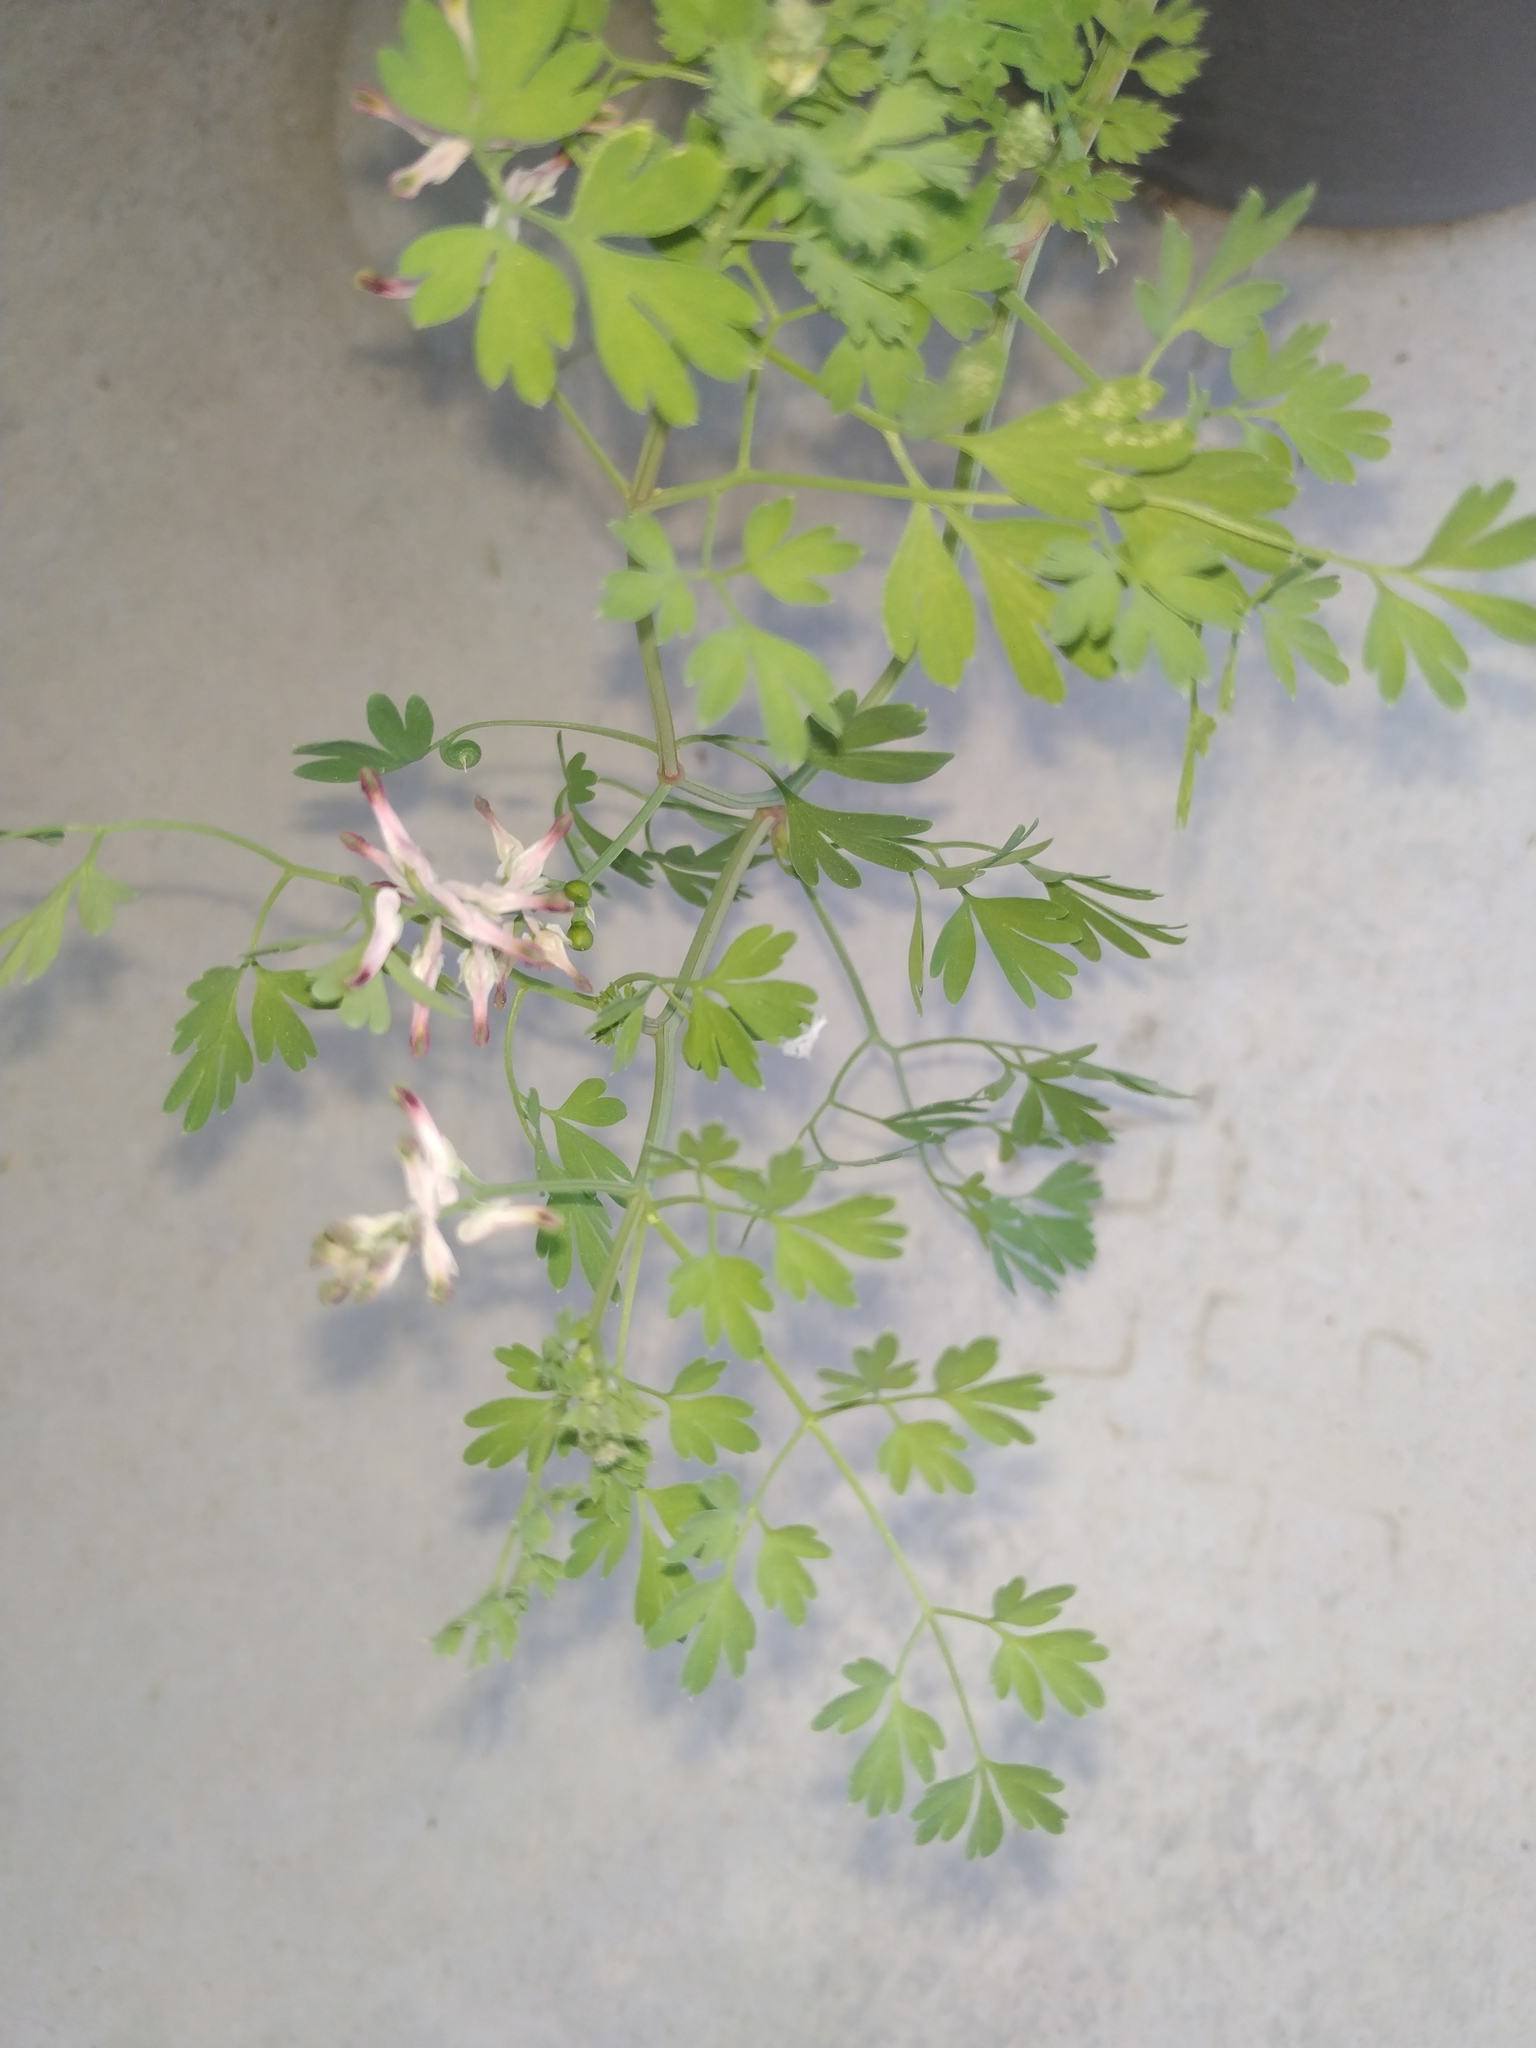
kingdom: Plantae
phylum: Tracheophyta
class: Magnoliopsida
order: Ranunculales
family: Papaveraceae
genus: Fumaria
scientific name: Fumaria capreolata
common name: White ramping-fumitory
